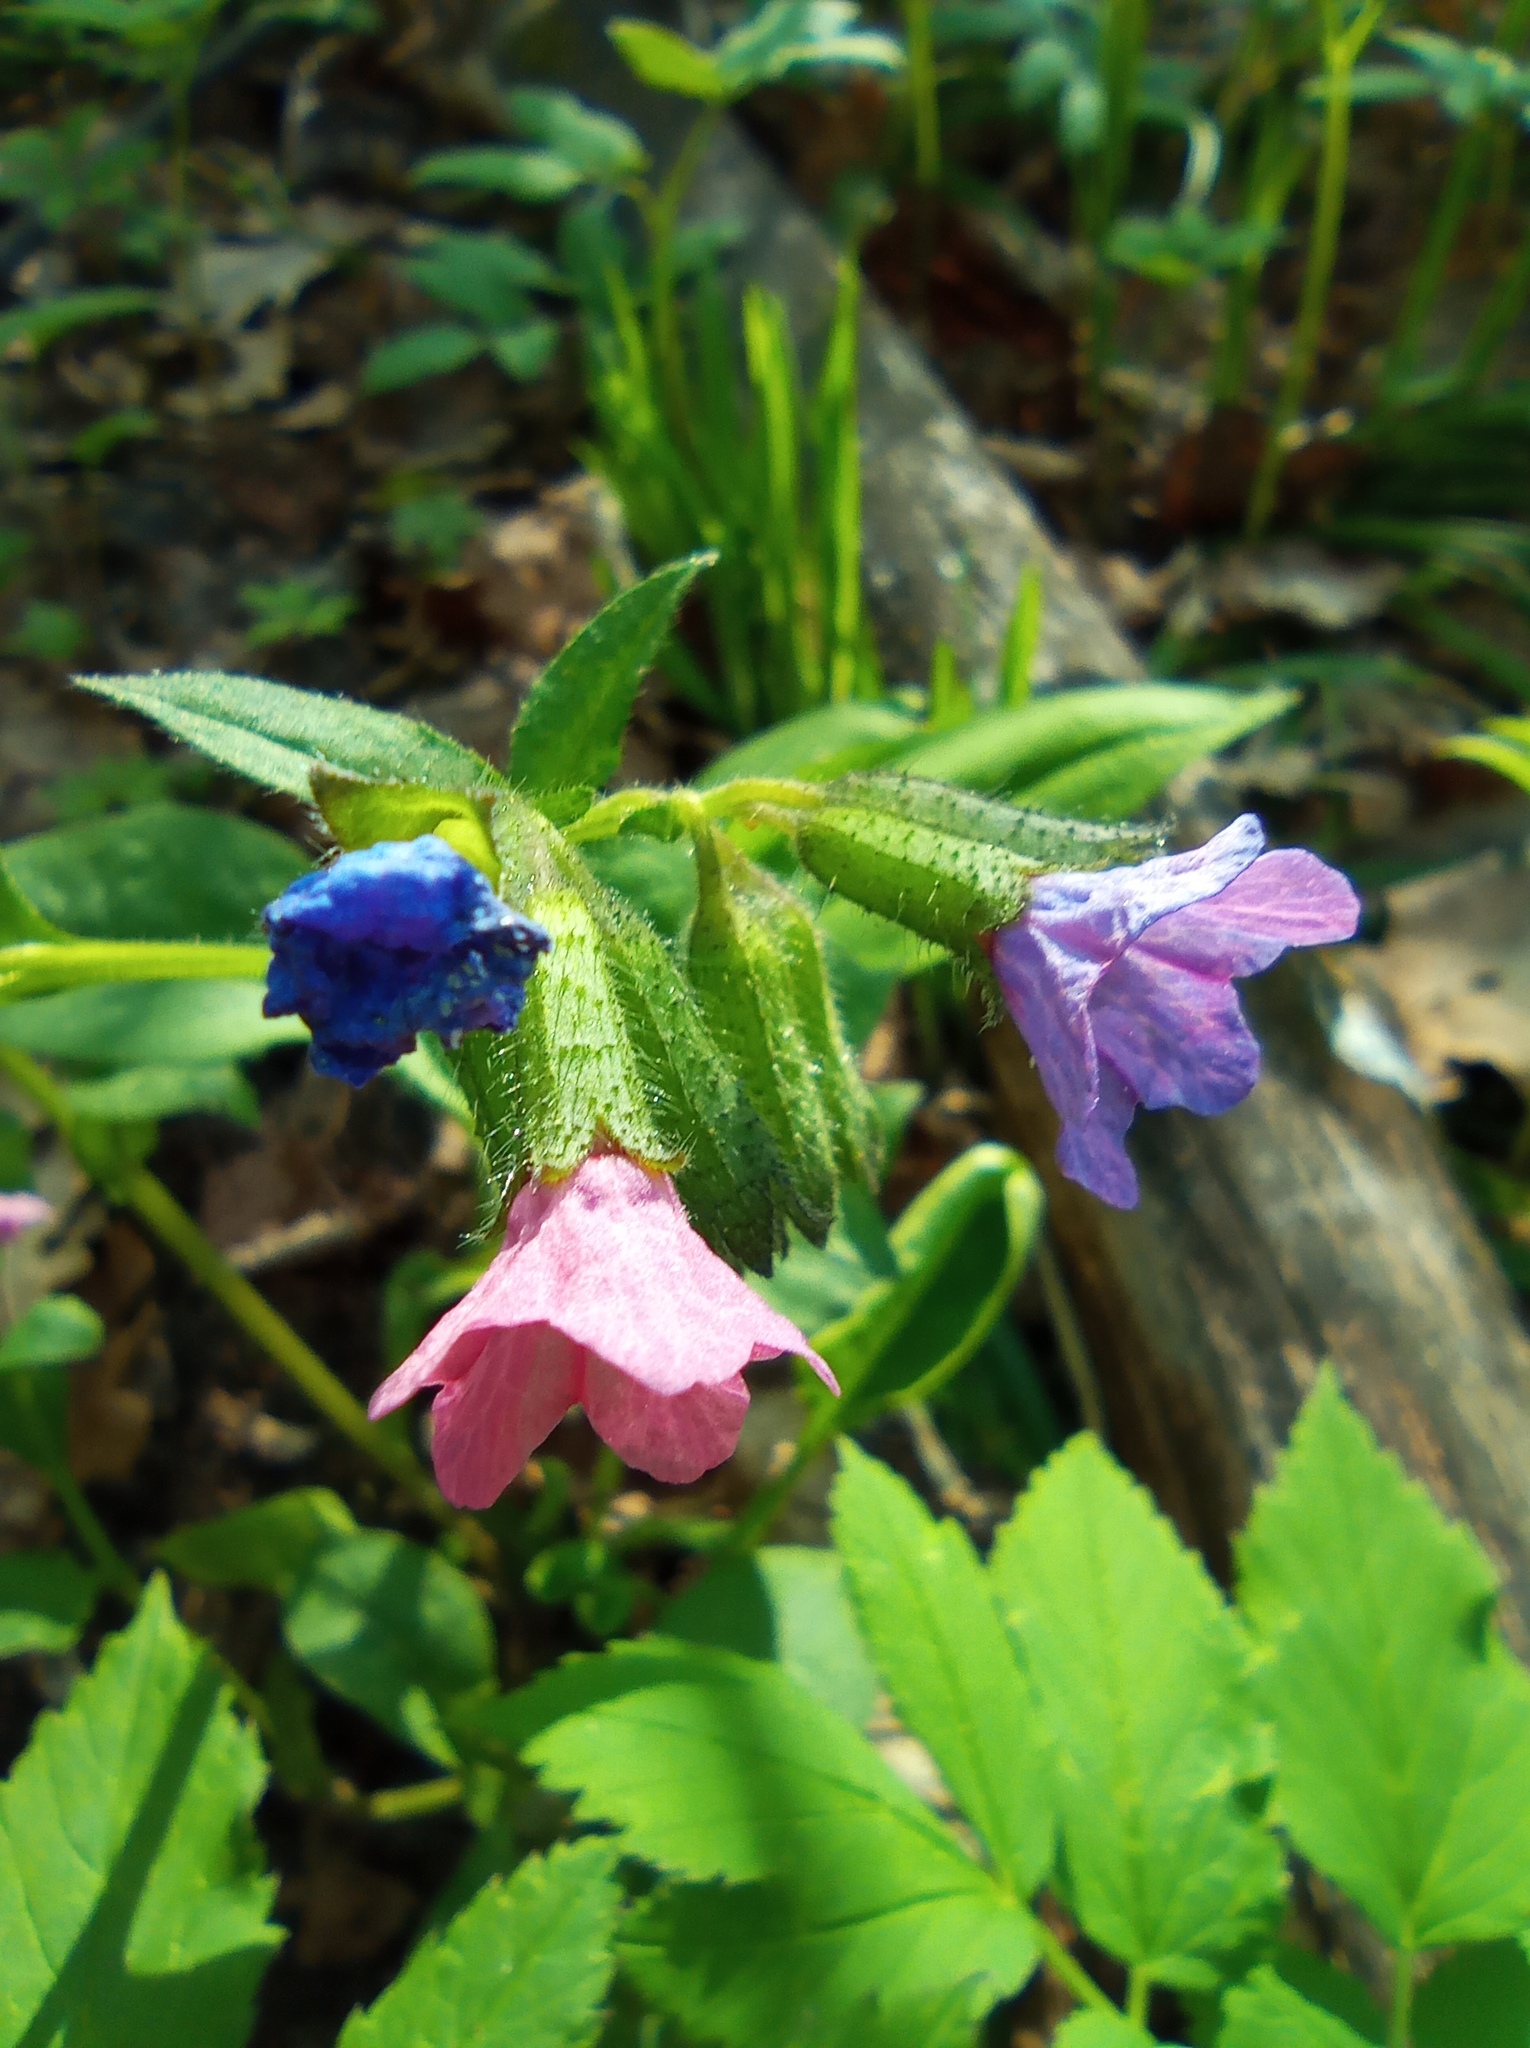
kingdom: Plantae
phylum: Tracheophyta
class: Magnoliopsida
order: Boraginales
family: Boraginaceae
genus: Pulmonaria
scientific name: Pulmonaria obscura
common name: Suffolk lungwort
